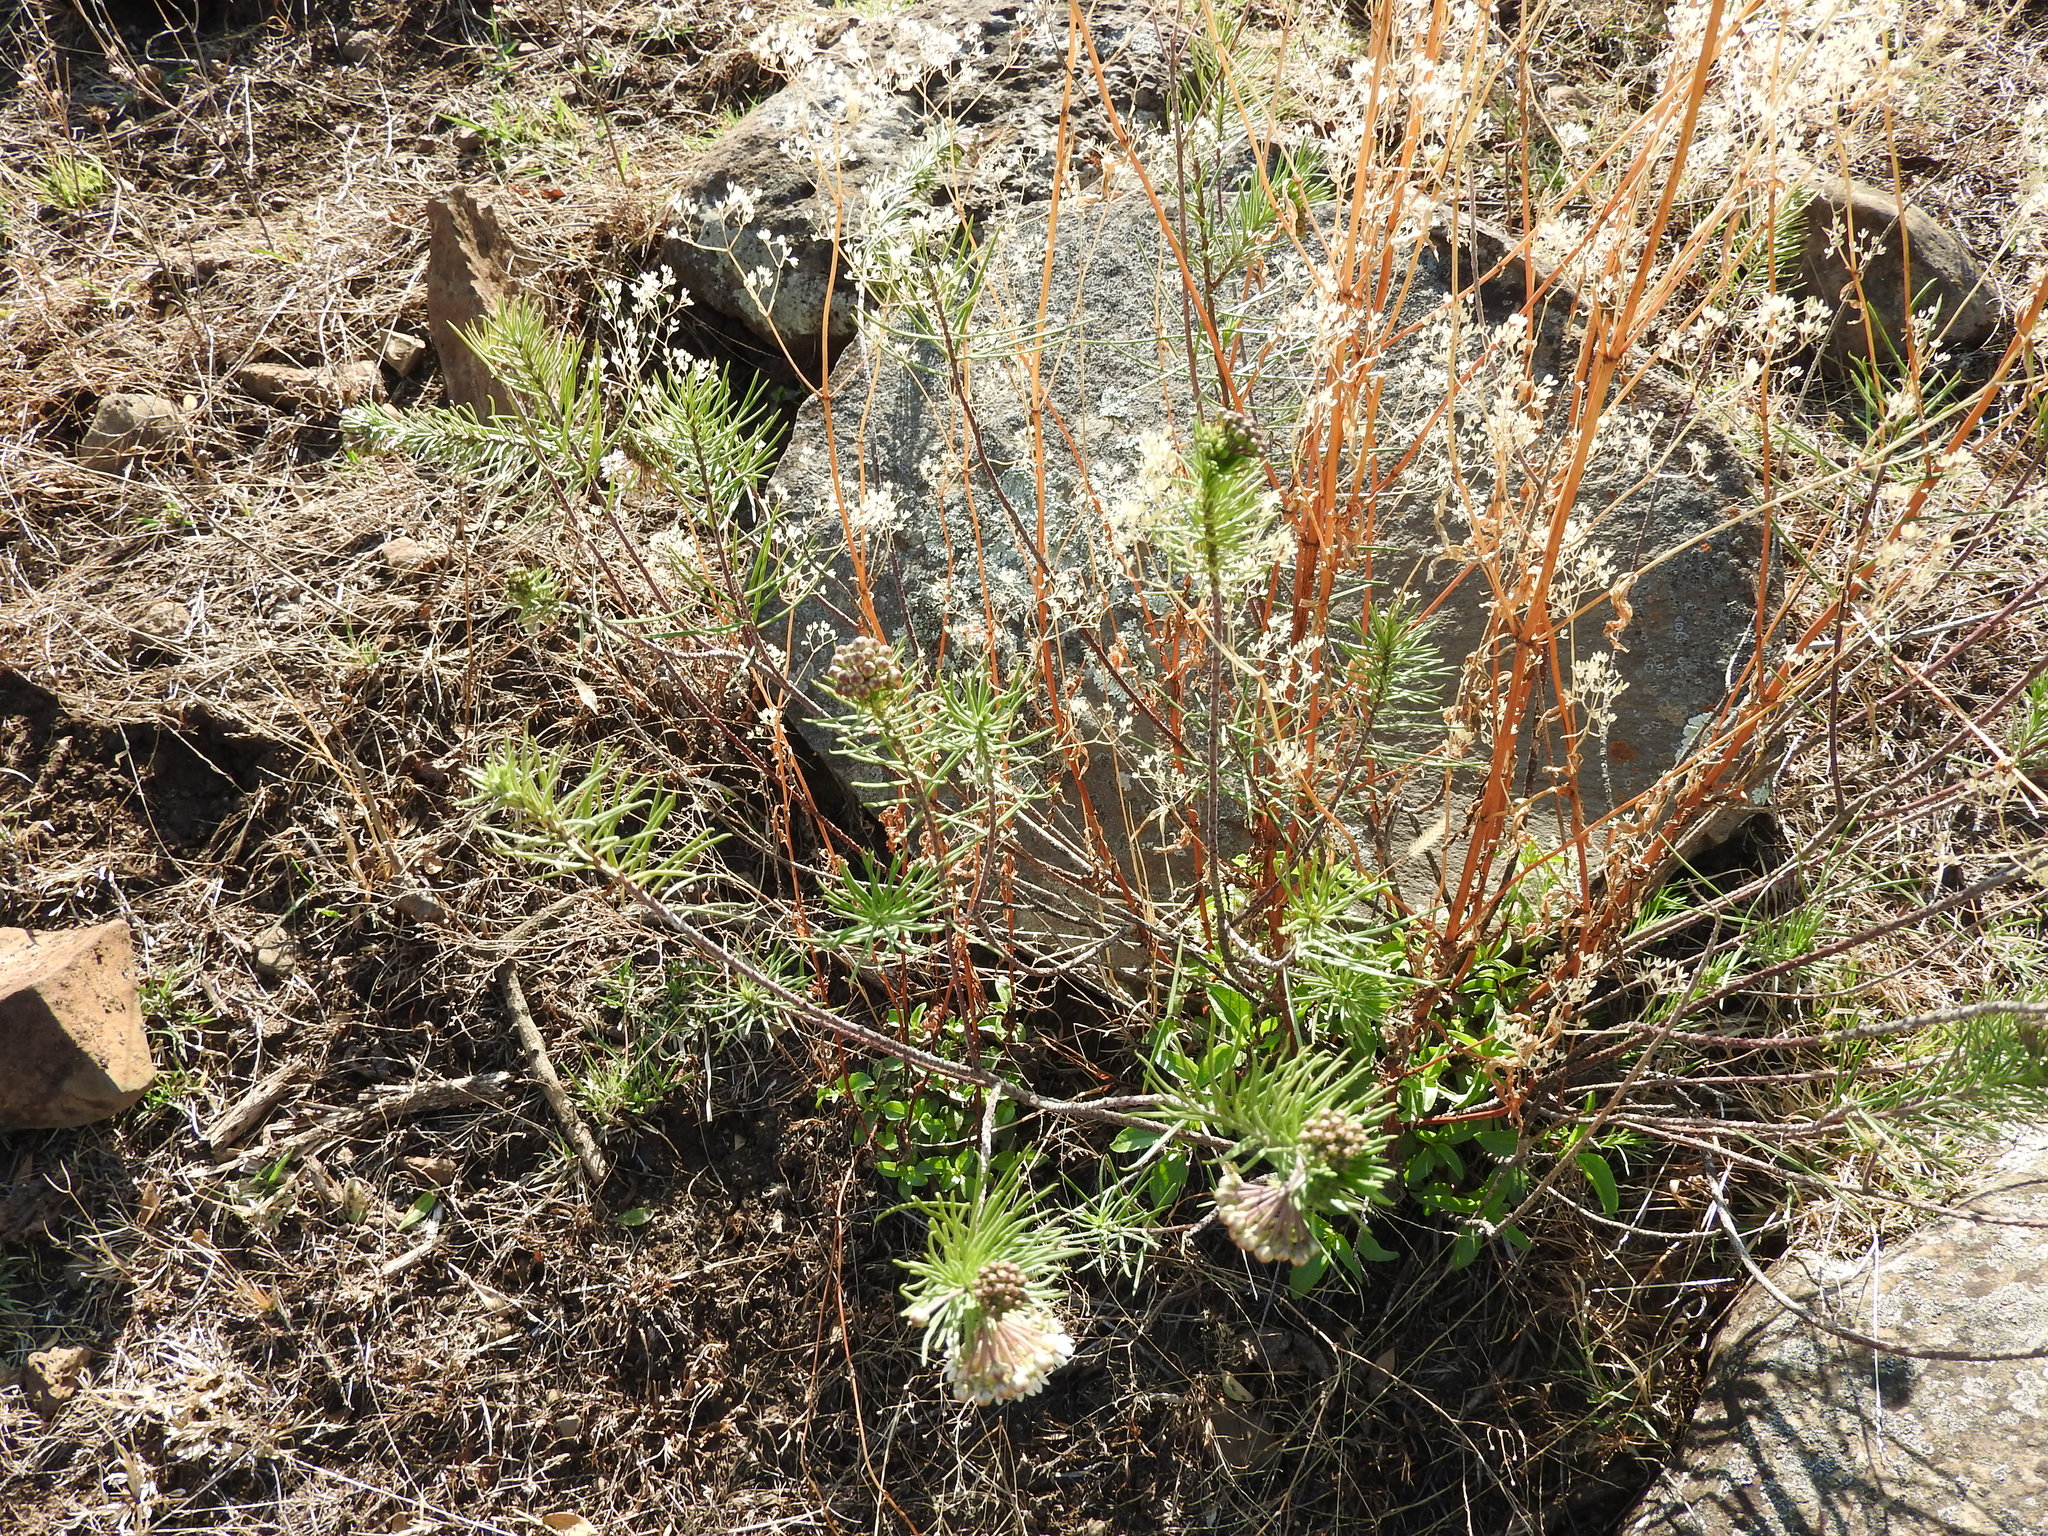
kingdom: Plantae
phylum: Tracheophyta
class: Magnoliopsida
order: Gentianales
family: Apocynaceae
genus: Asclepias
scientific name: Asclepias linaria
